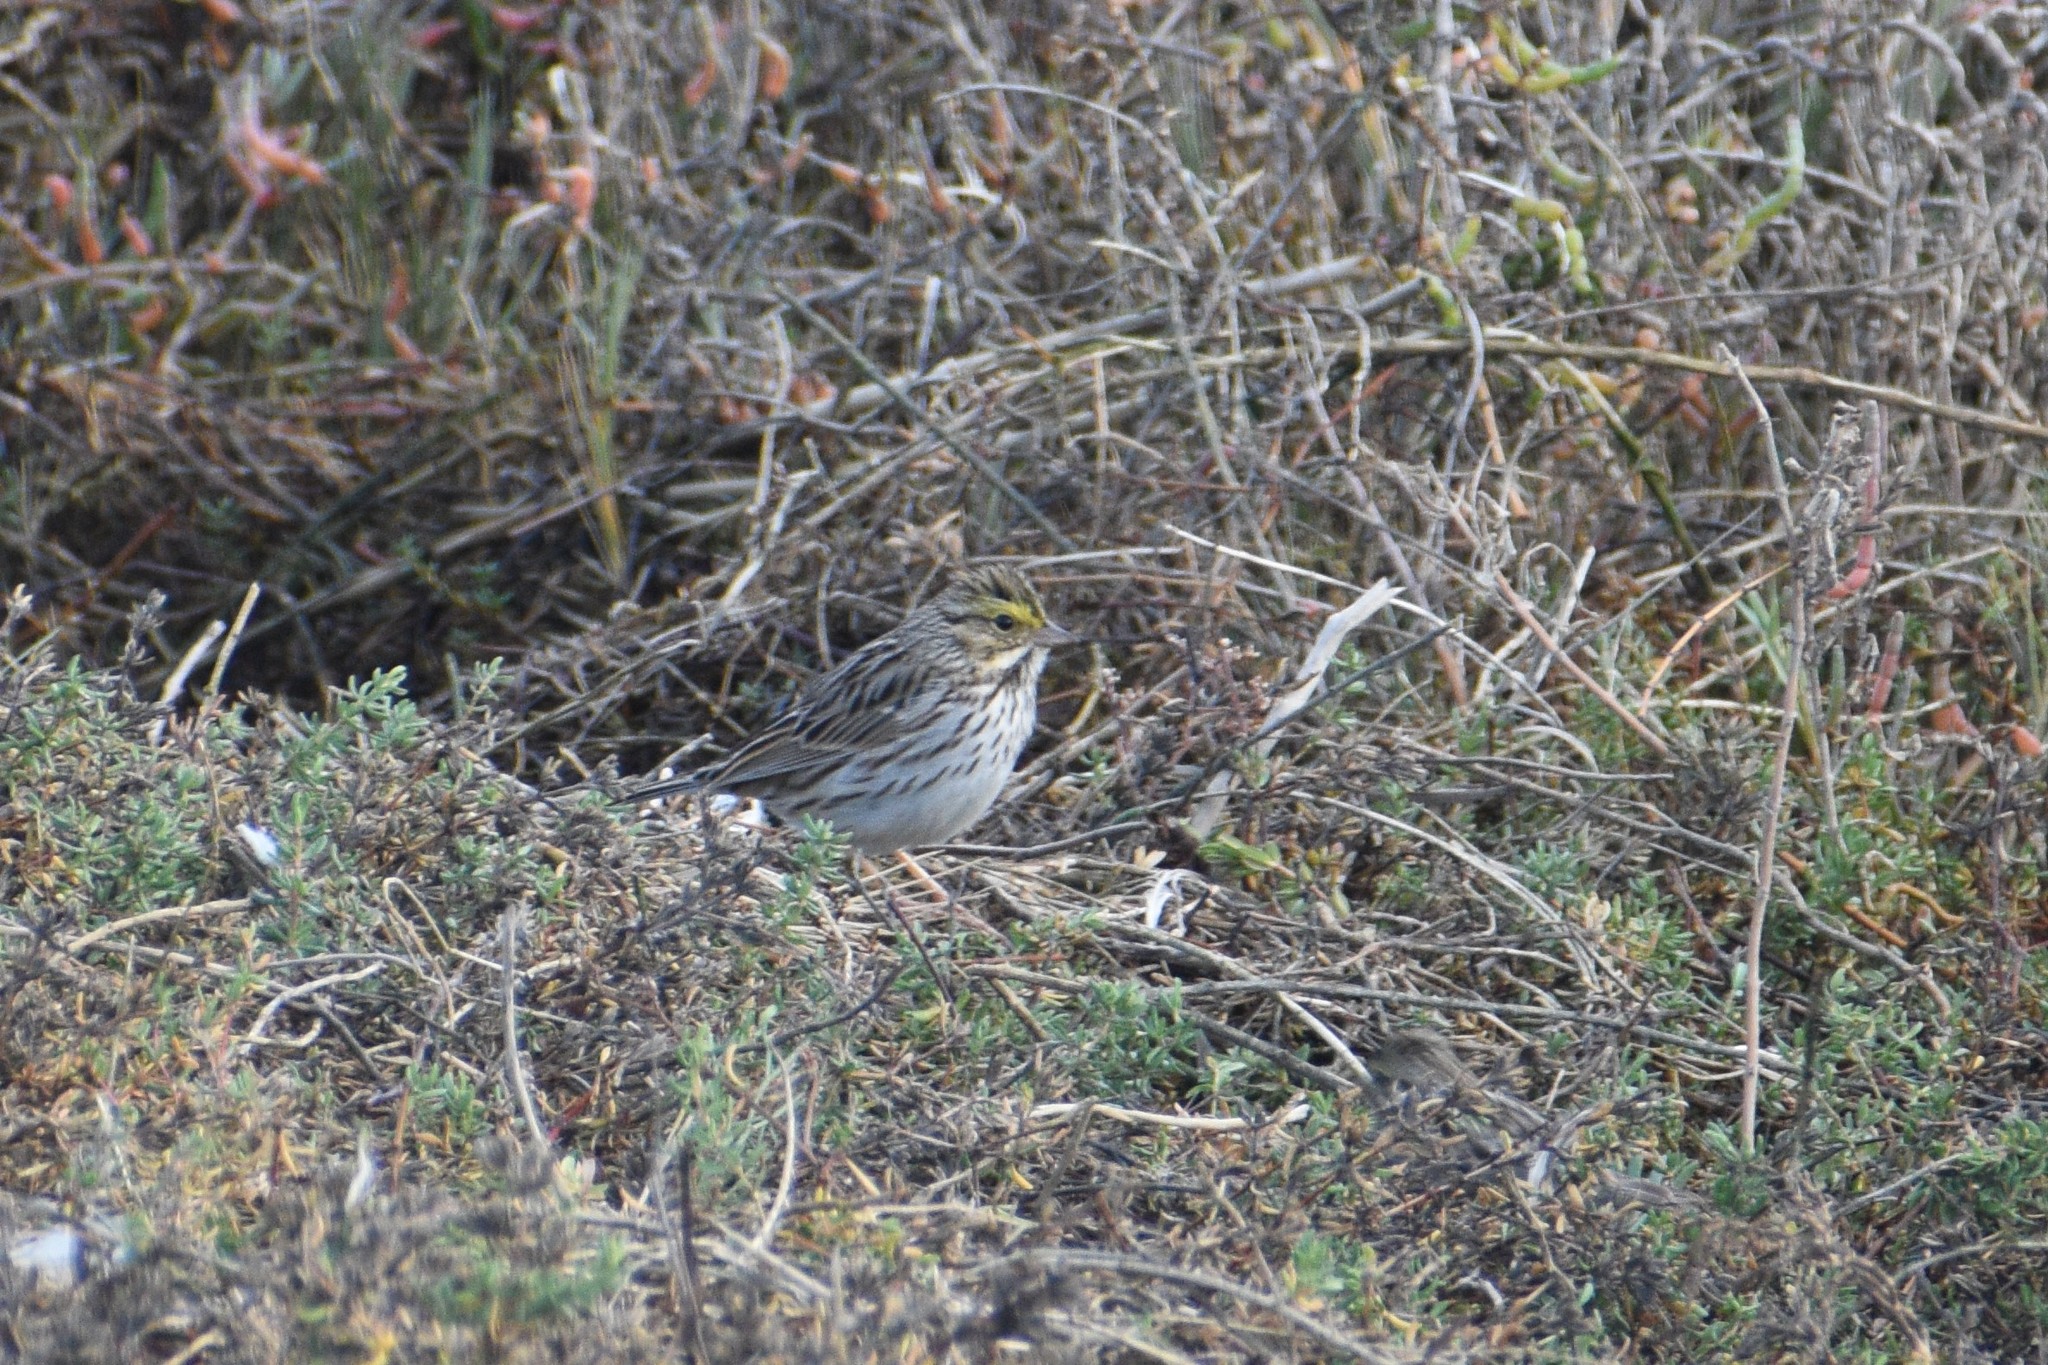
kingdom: Animalia
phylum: Chordata
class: Aves
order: Passeriformes
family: Passerellidae
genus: Passerculus
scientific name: Passerculus sandwichensis
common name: Savannah sparrow
